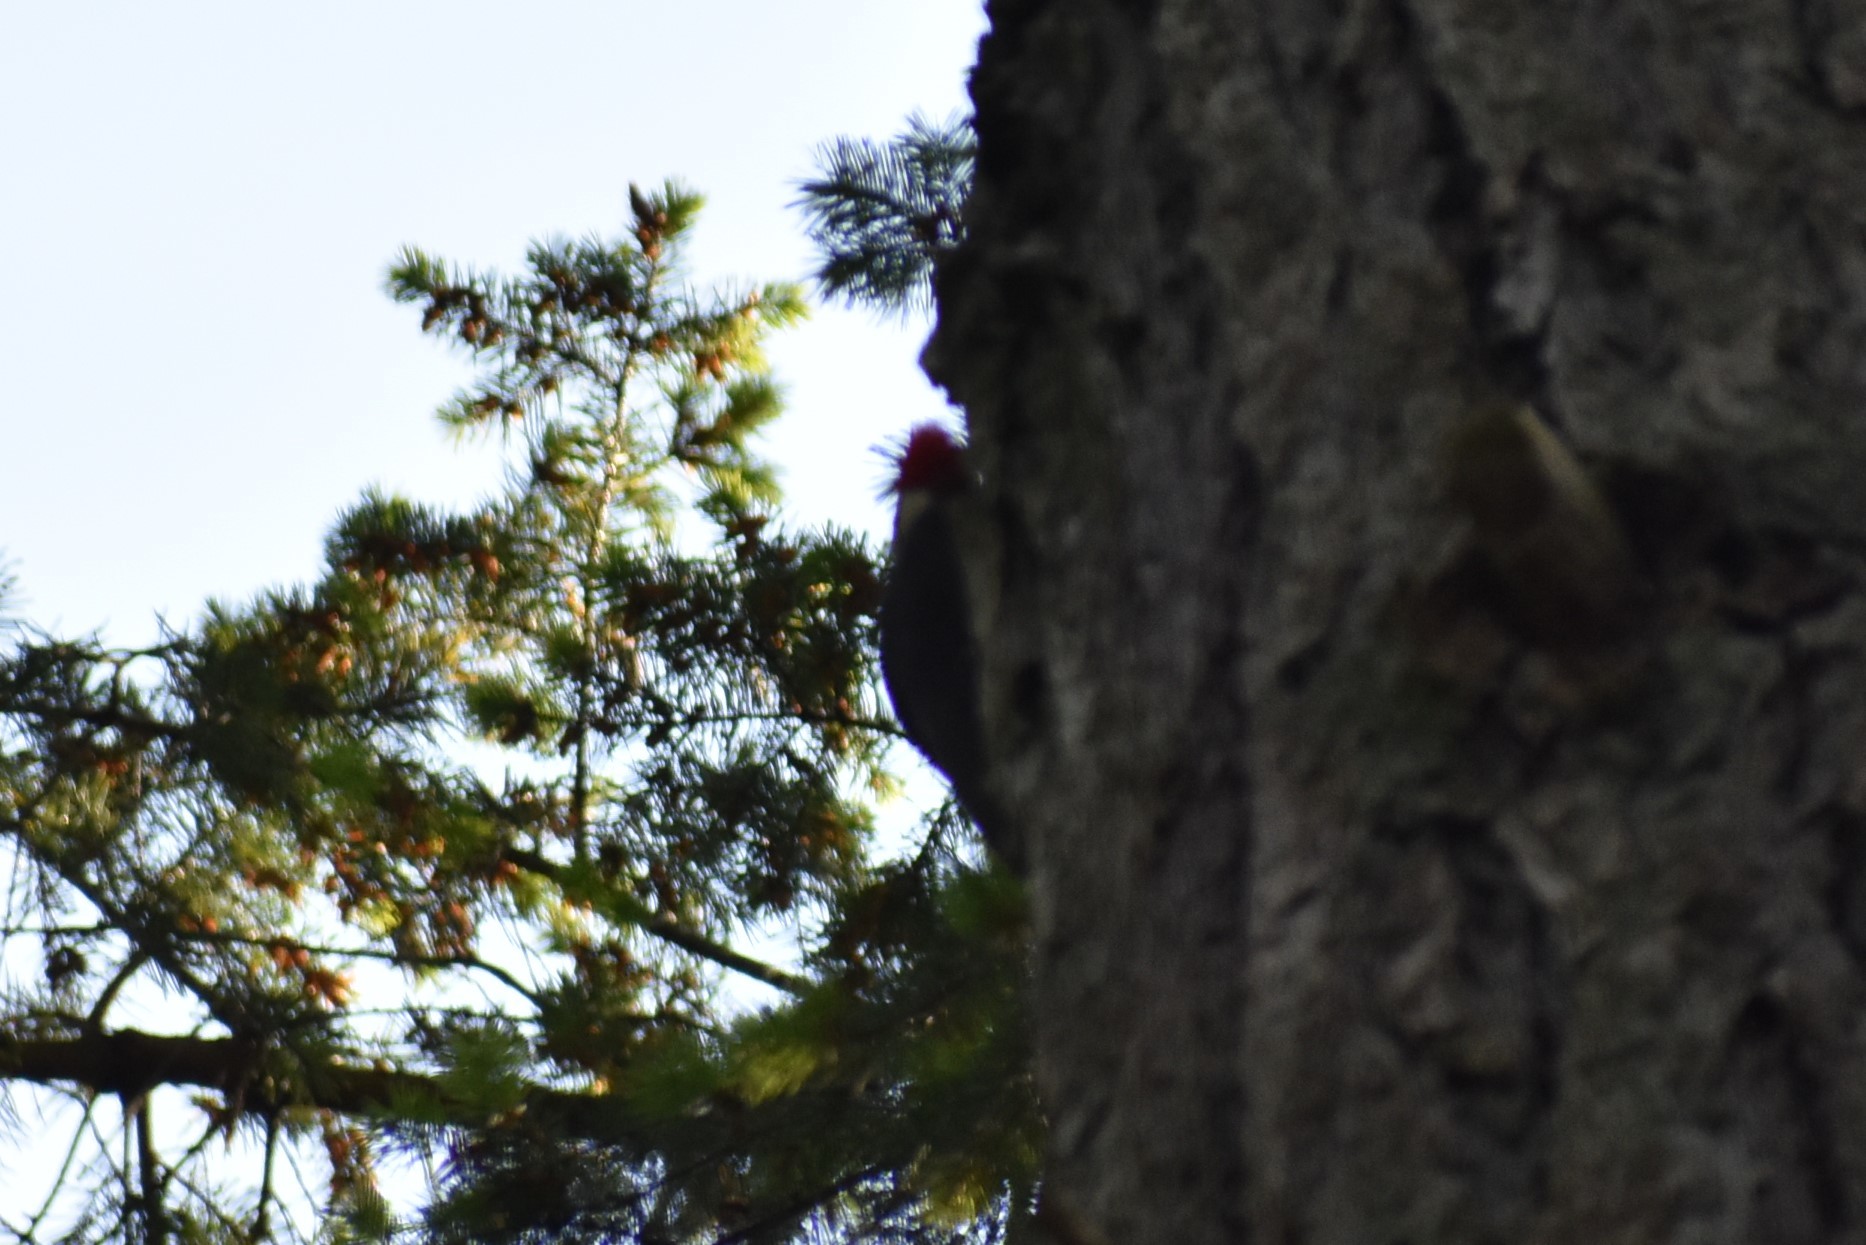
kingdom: Animalia
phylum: Chordata
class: Aves
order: Piciformes
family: Picidae
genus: Dryocopus
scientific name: Dryocopus pileatus
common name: Pileated woodpecker
